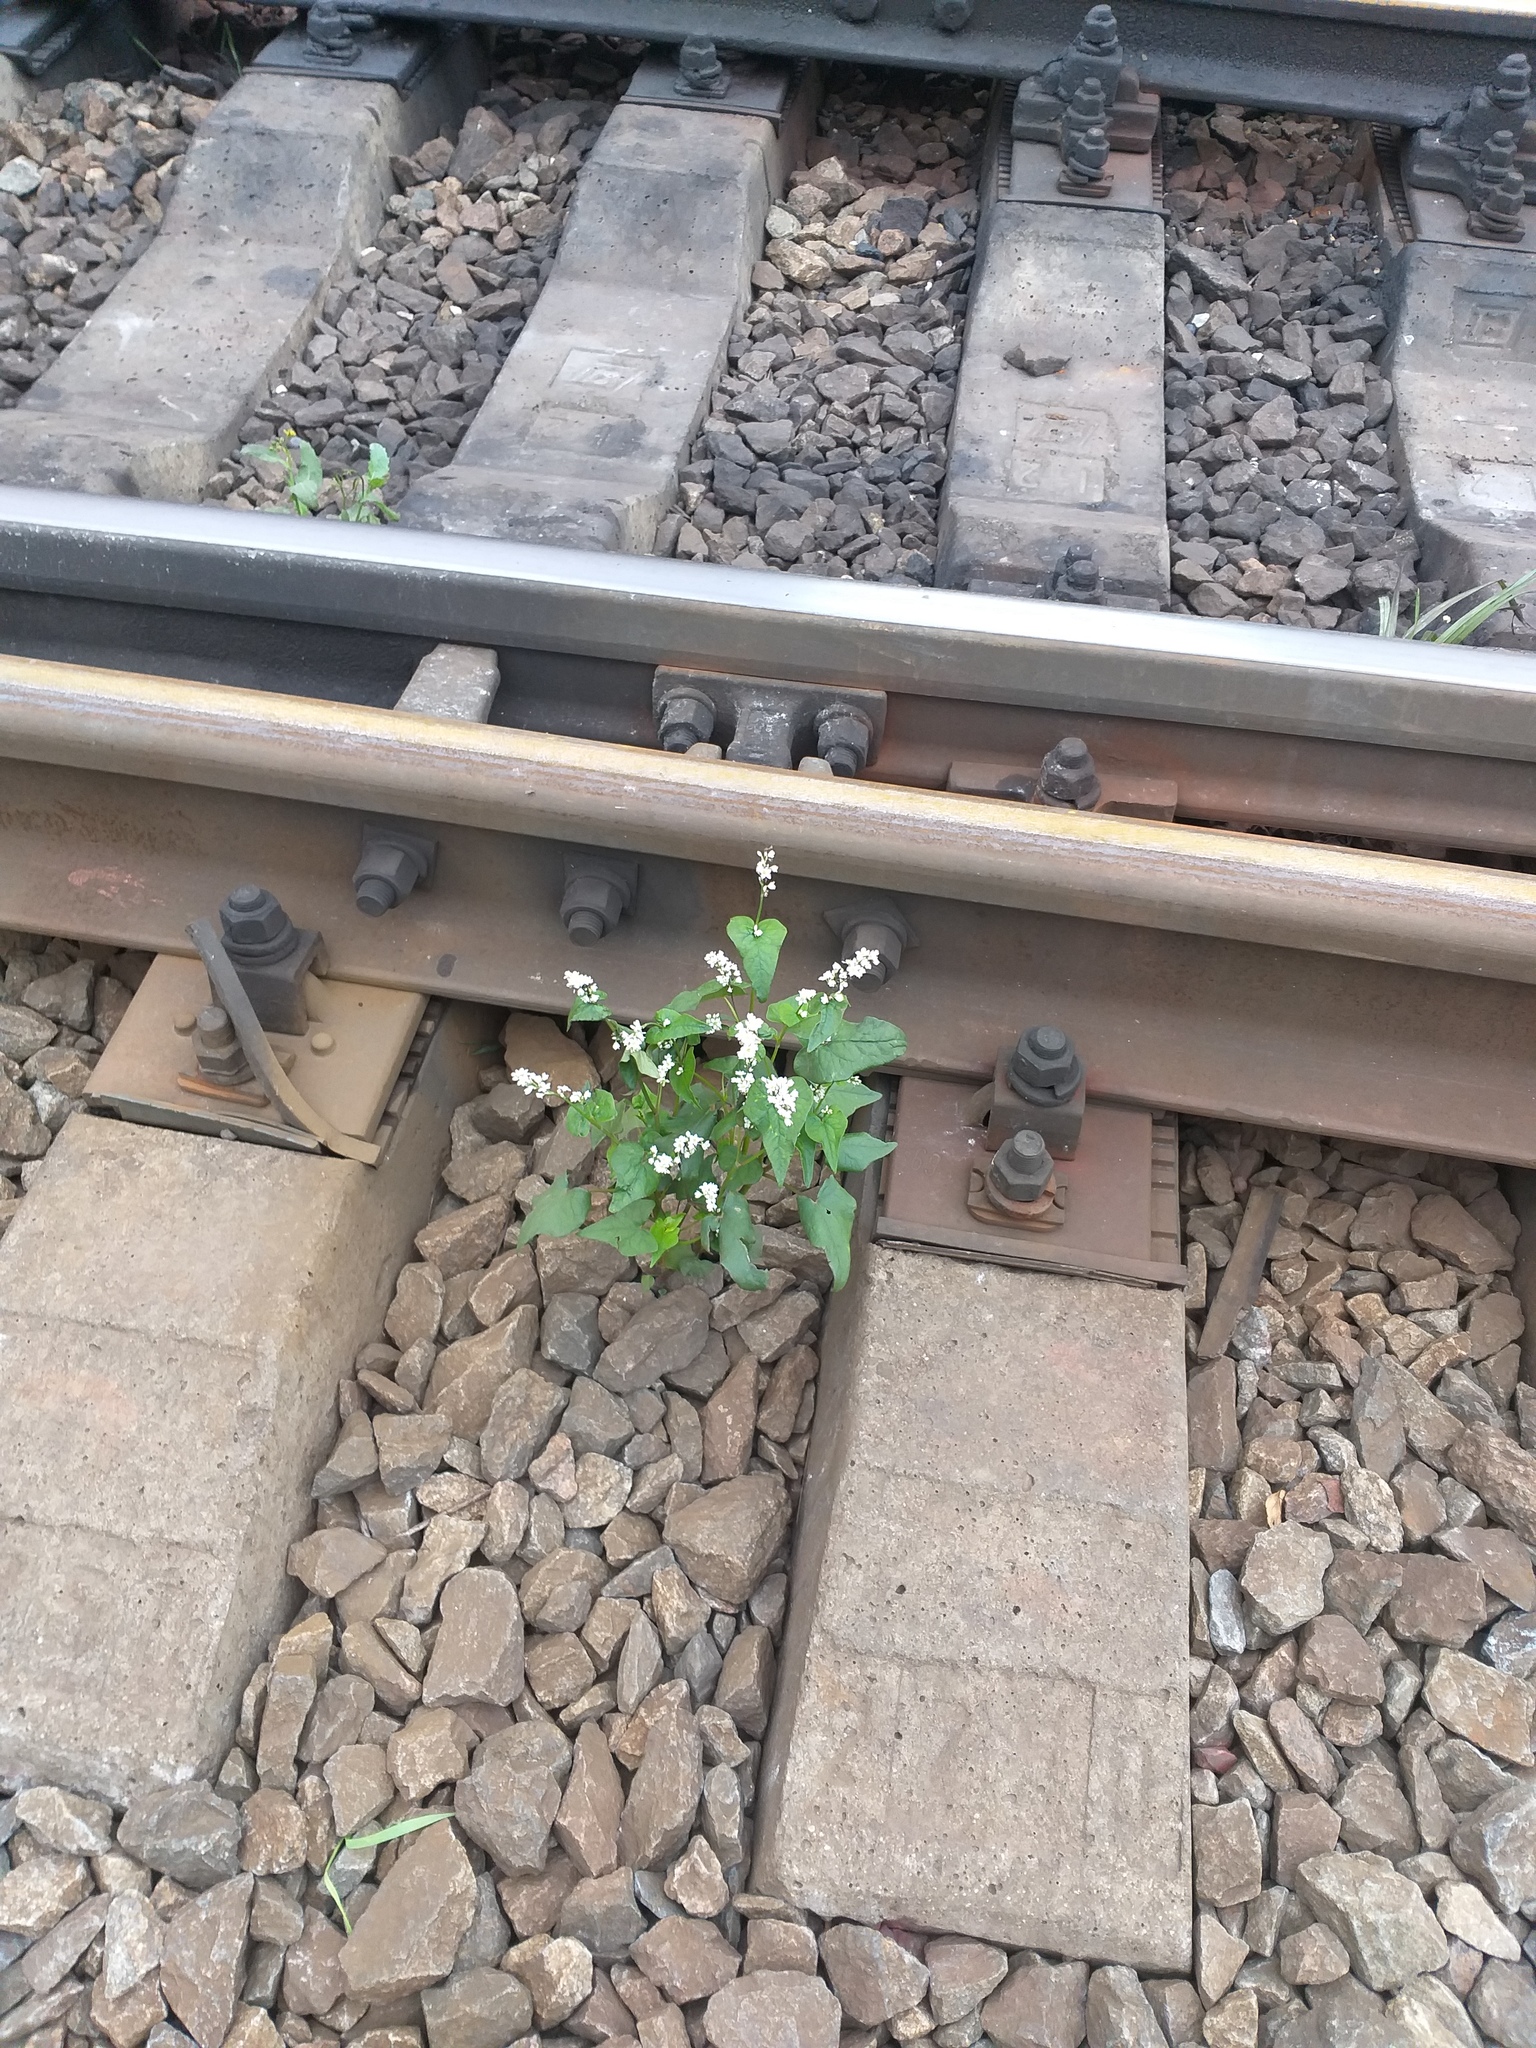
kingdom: Plantae
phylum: Tracheophyta
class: Magnoliopsida
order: Caryophyllales
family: Polygonaceae
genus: Fagopyrum
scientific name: Fagopyrum esculentum
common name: Buckwheat
